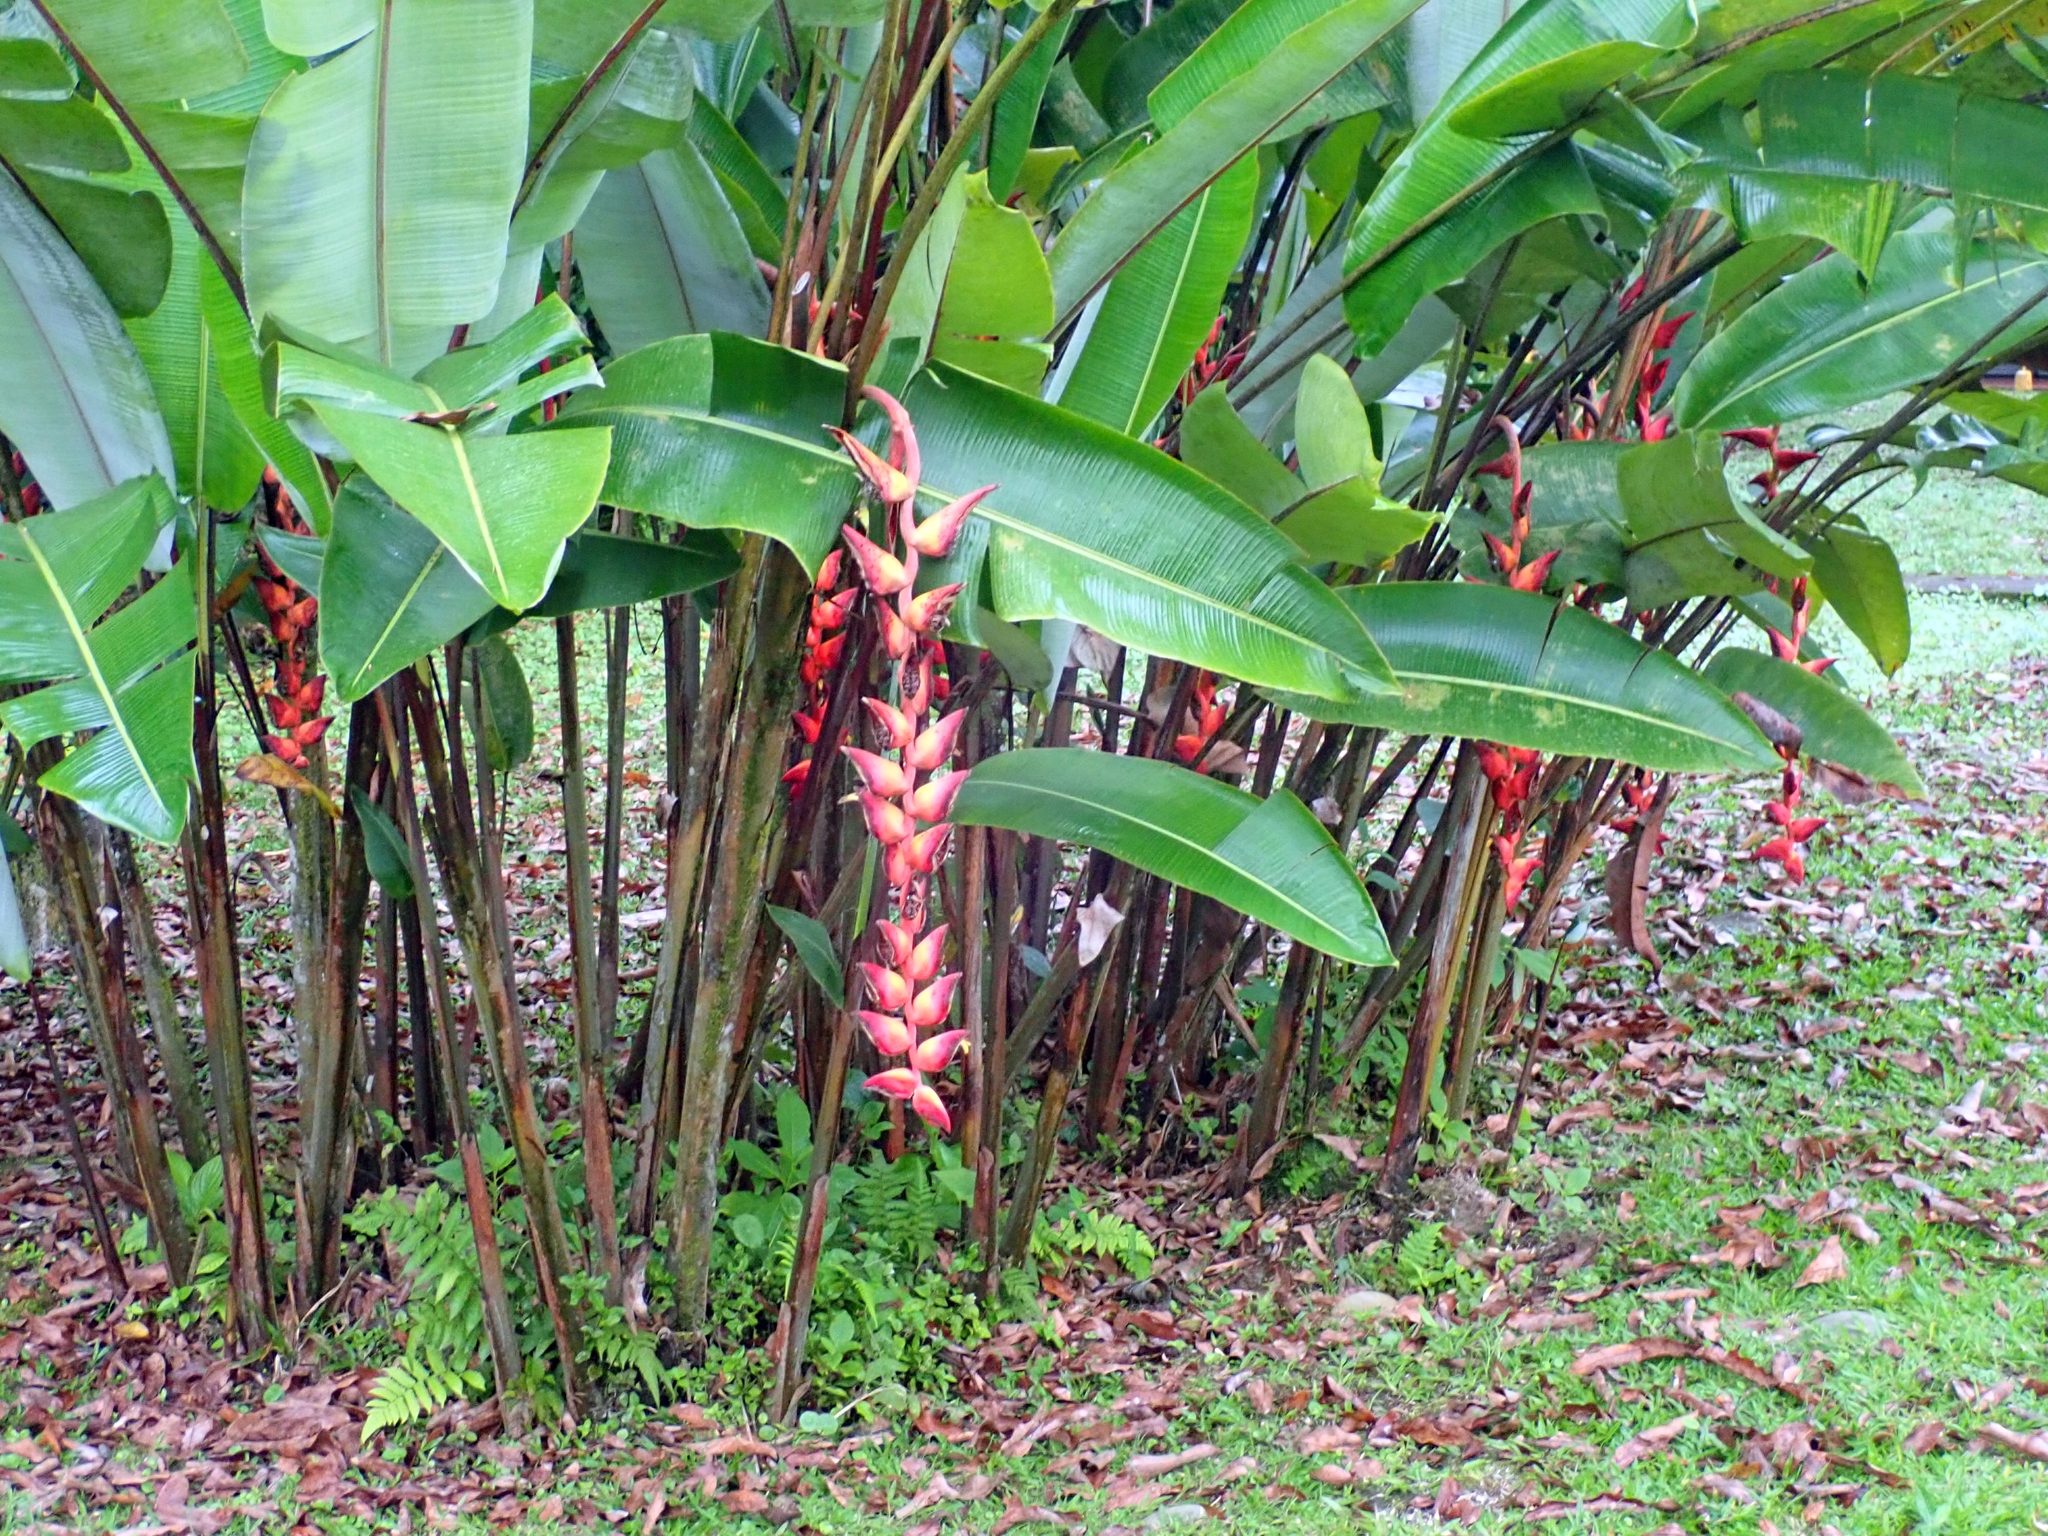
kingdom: Plantae
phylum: Tracheophyta
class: Liliopsida
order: Zingiberales
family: Heliconiaceae
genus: Heliconia
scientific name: Heliconia pogonantha
